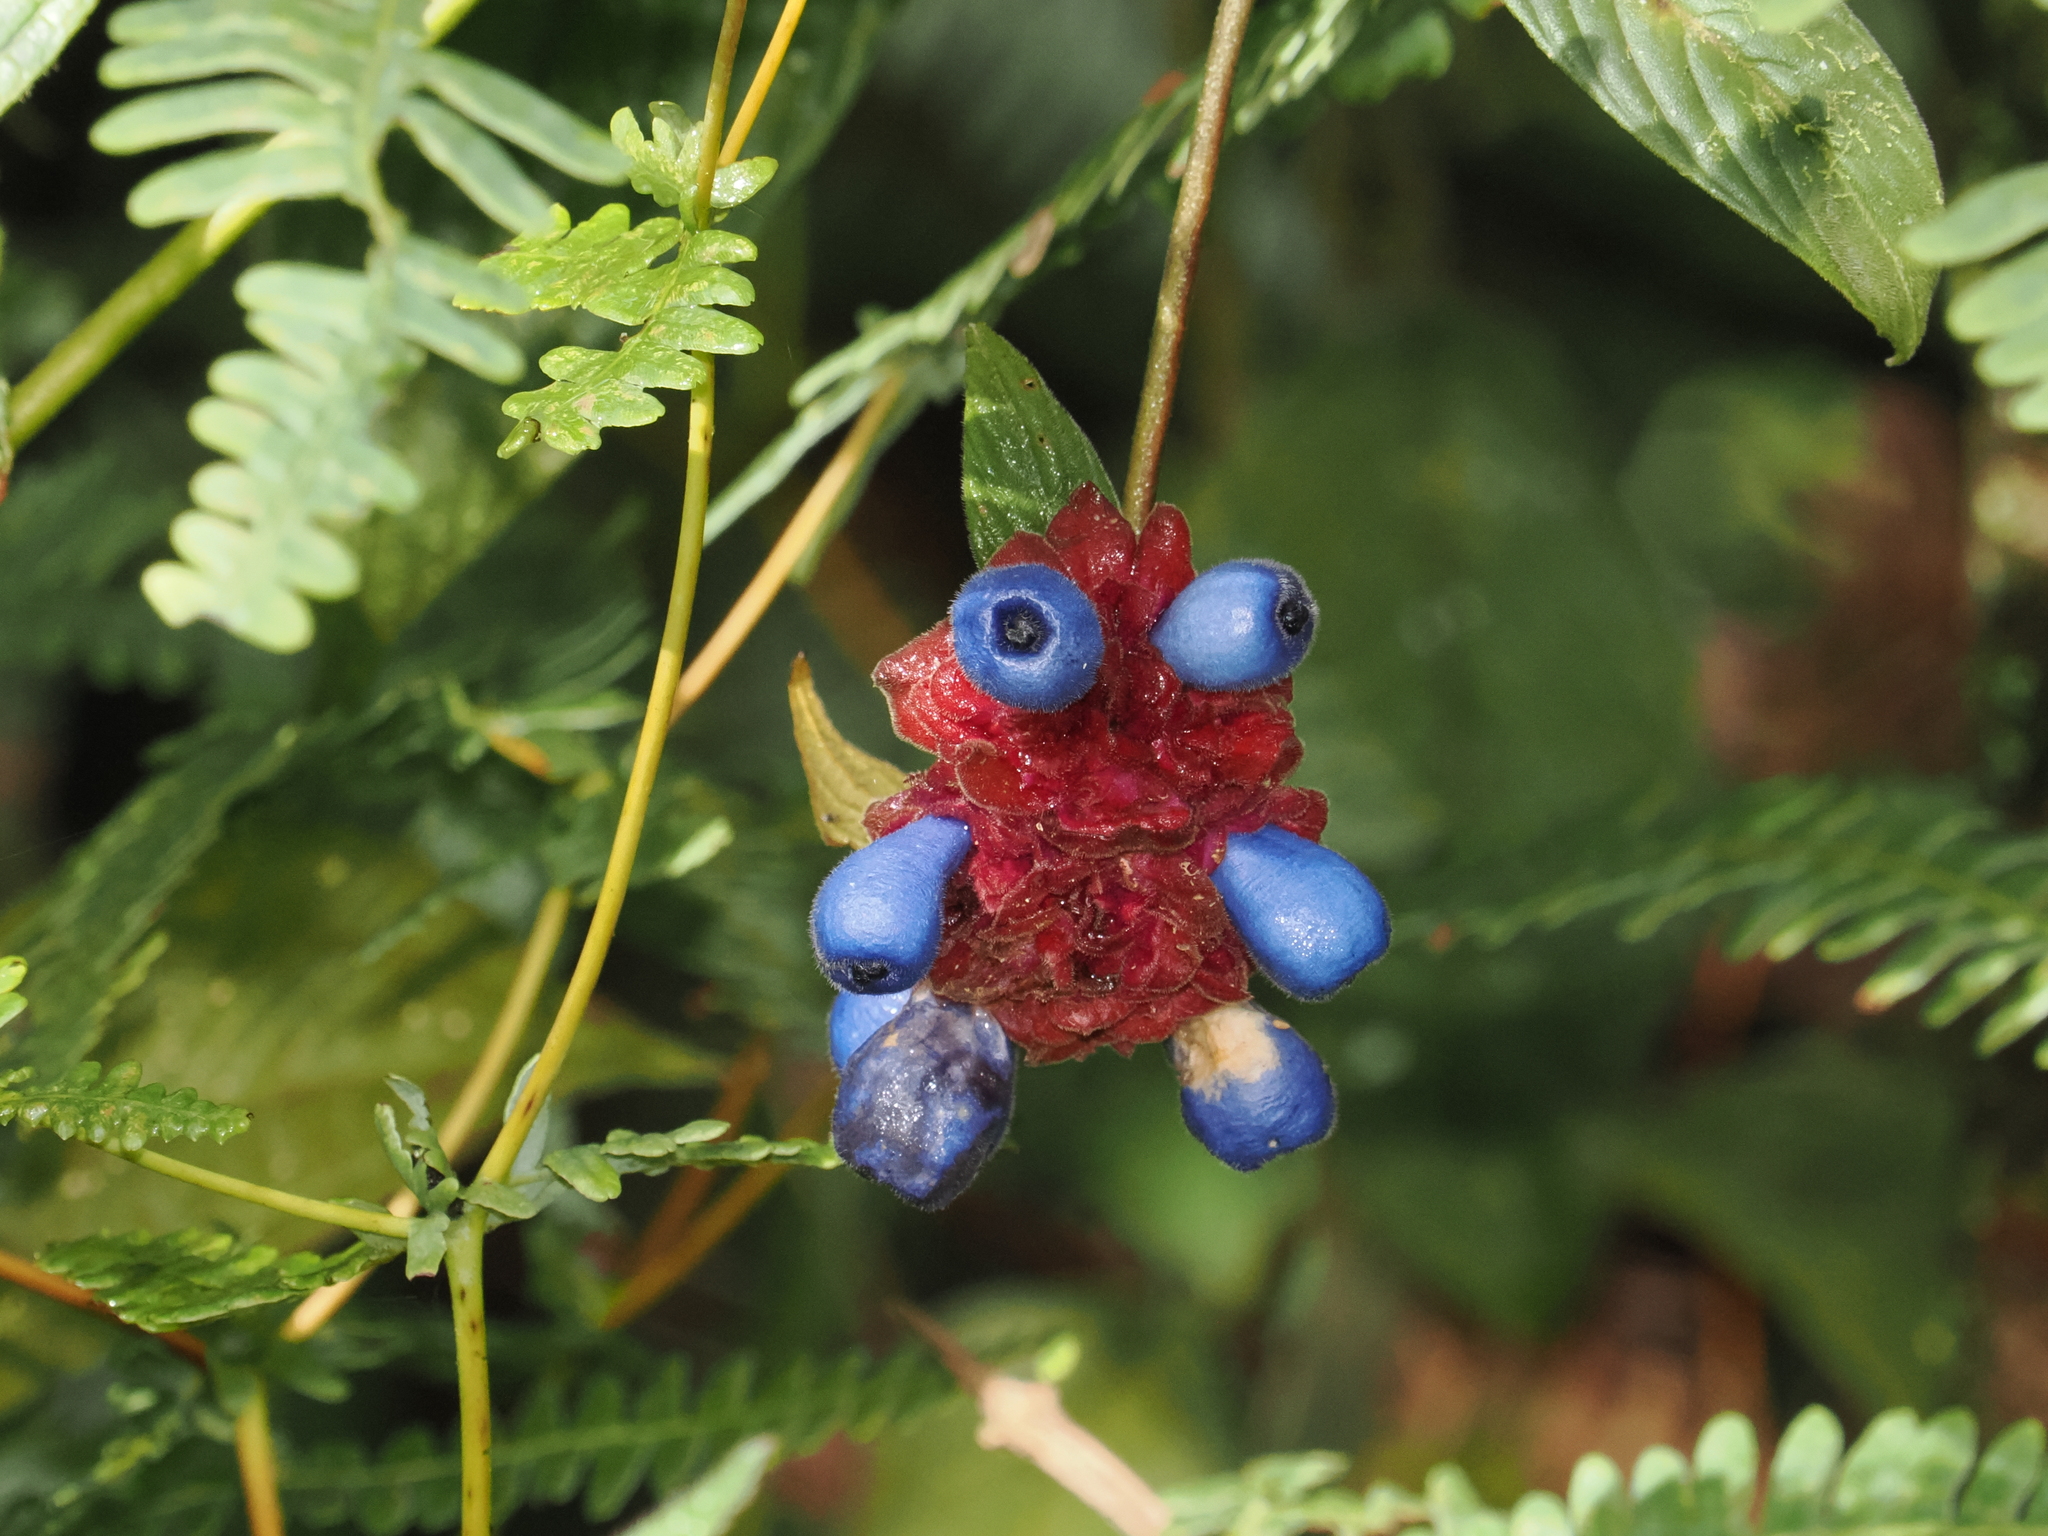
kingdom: Plantae
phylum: Tracheophyta
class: Magnoliopsida
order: Gentianales
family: Rubiaceae
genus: Palicourea
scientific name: Palicourea ruelliifolia
